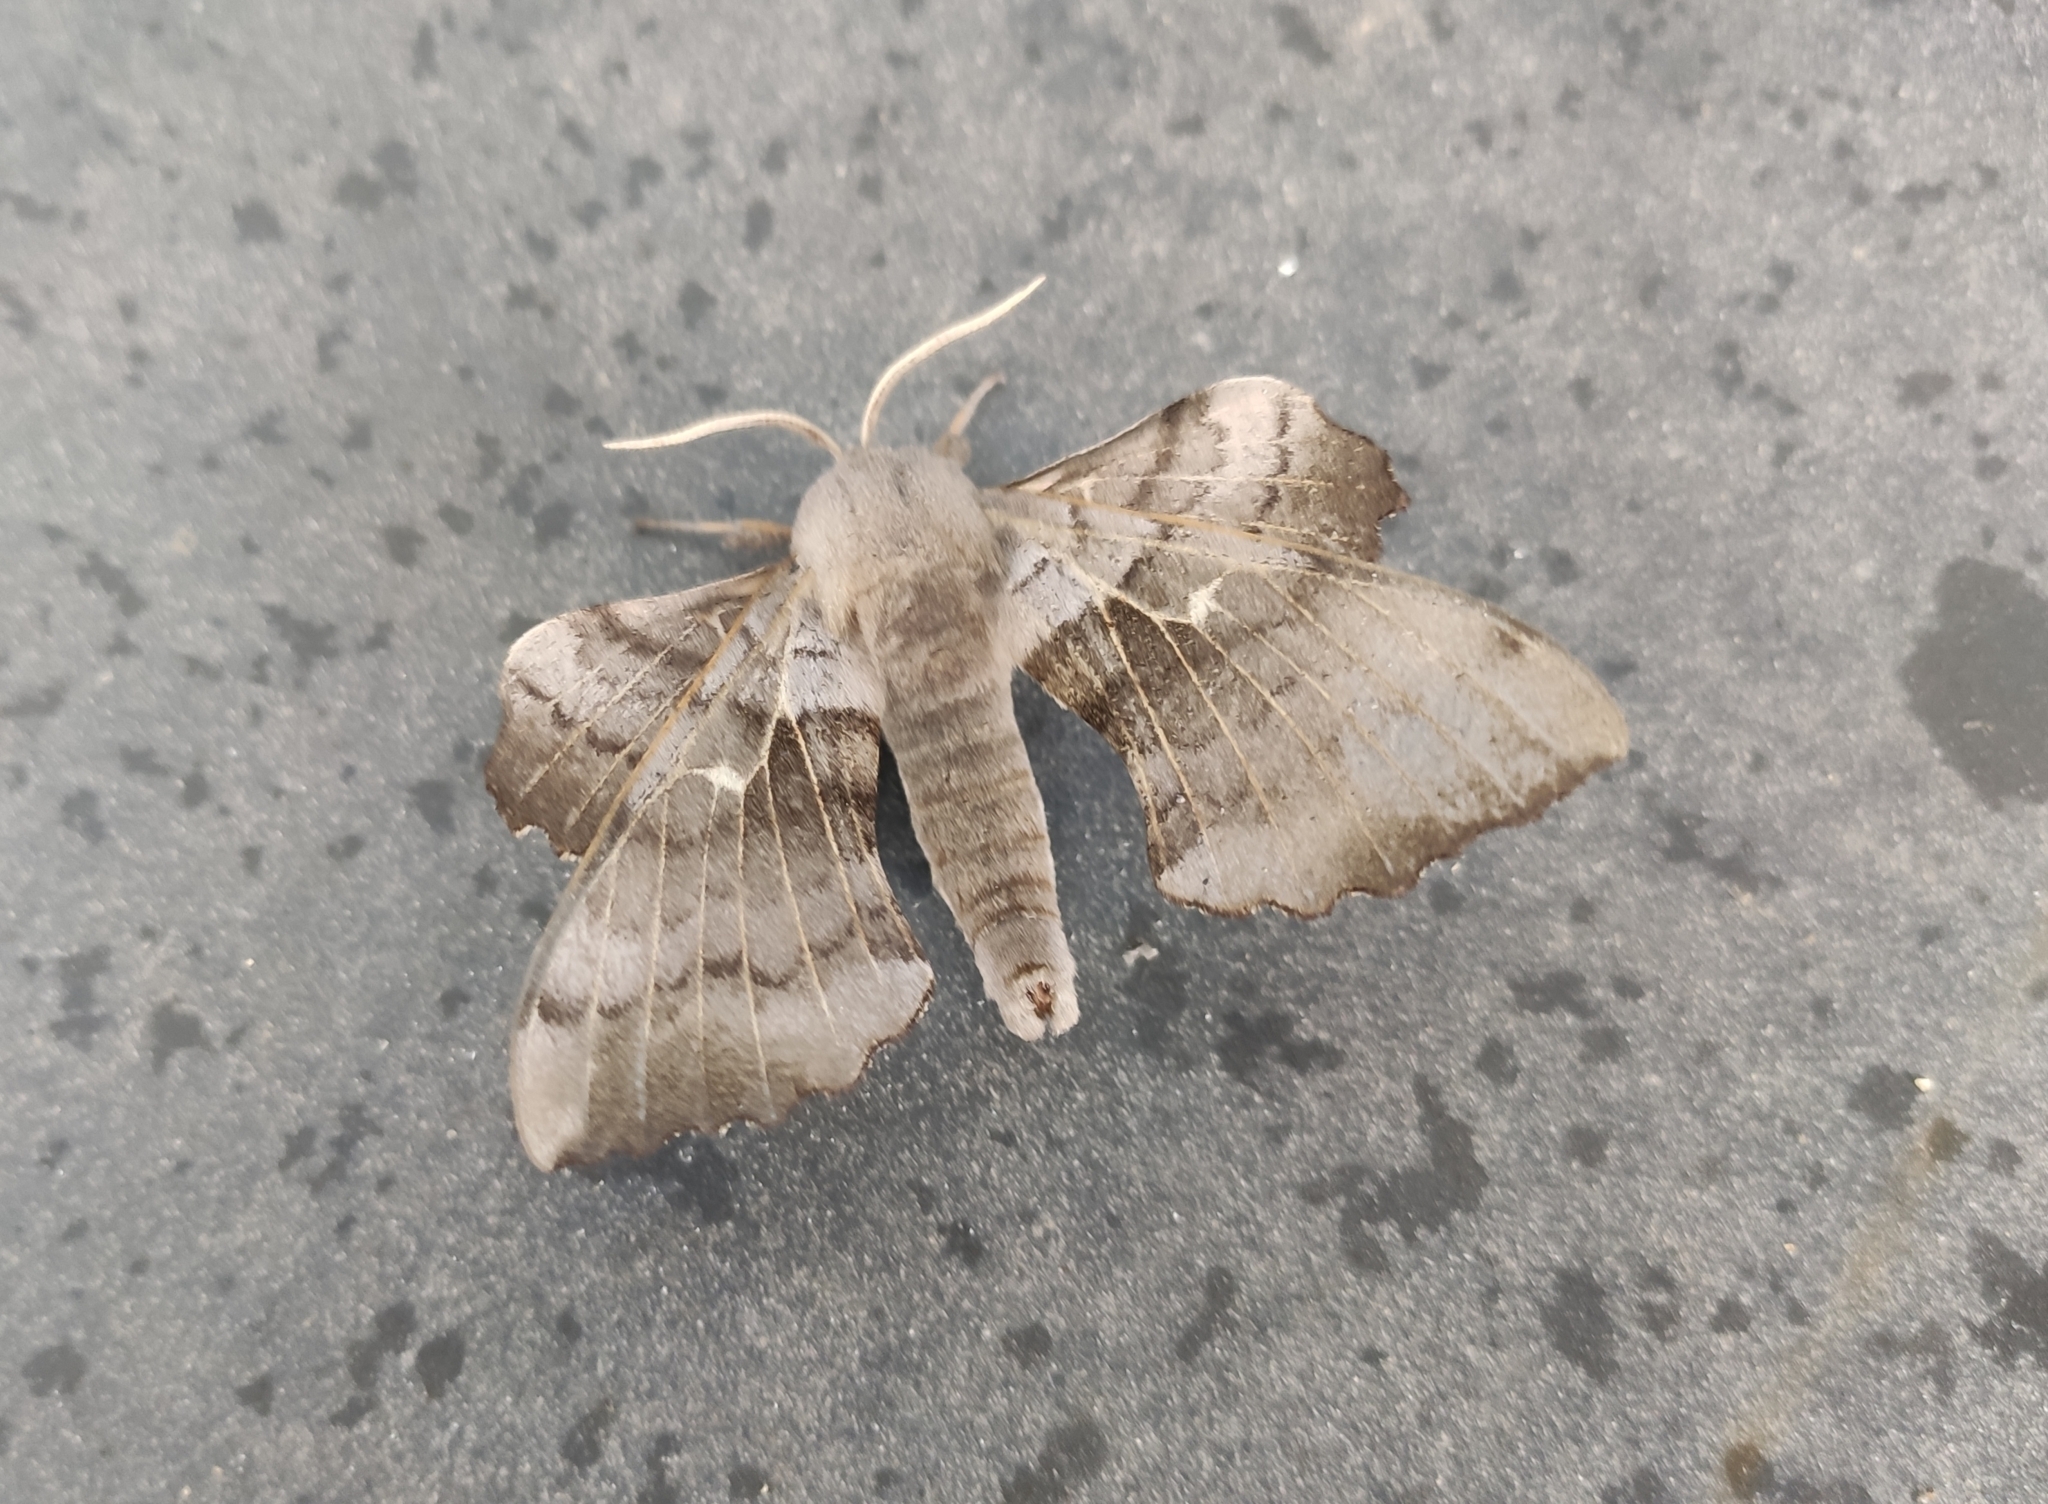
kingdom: Animalia
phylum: Arthropoda
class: Insecta
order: Lepidoptera
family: Sphingidae
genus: Laothoe
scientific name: Laothoe populi
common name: Poplar hawk-moth
